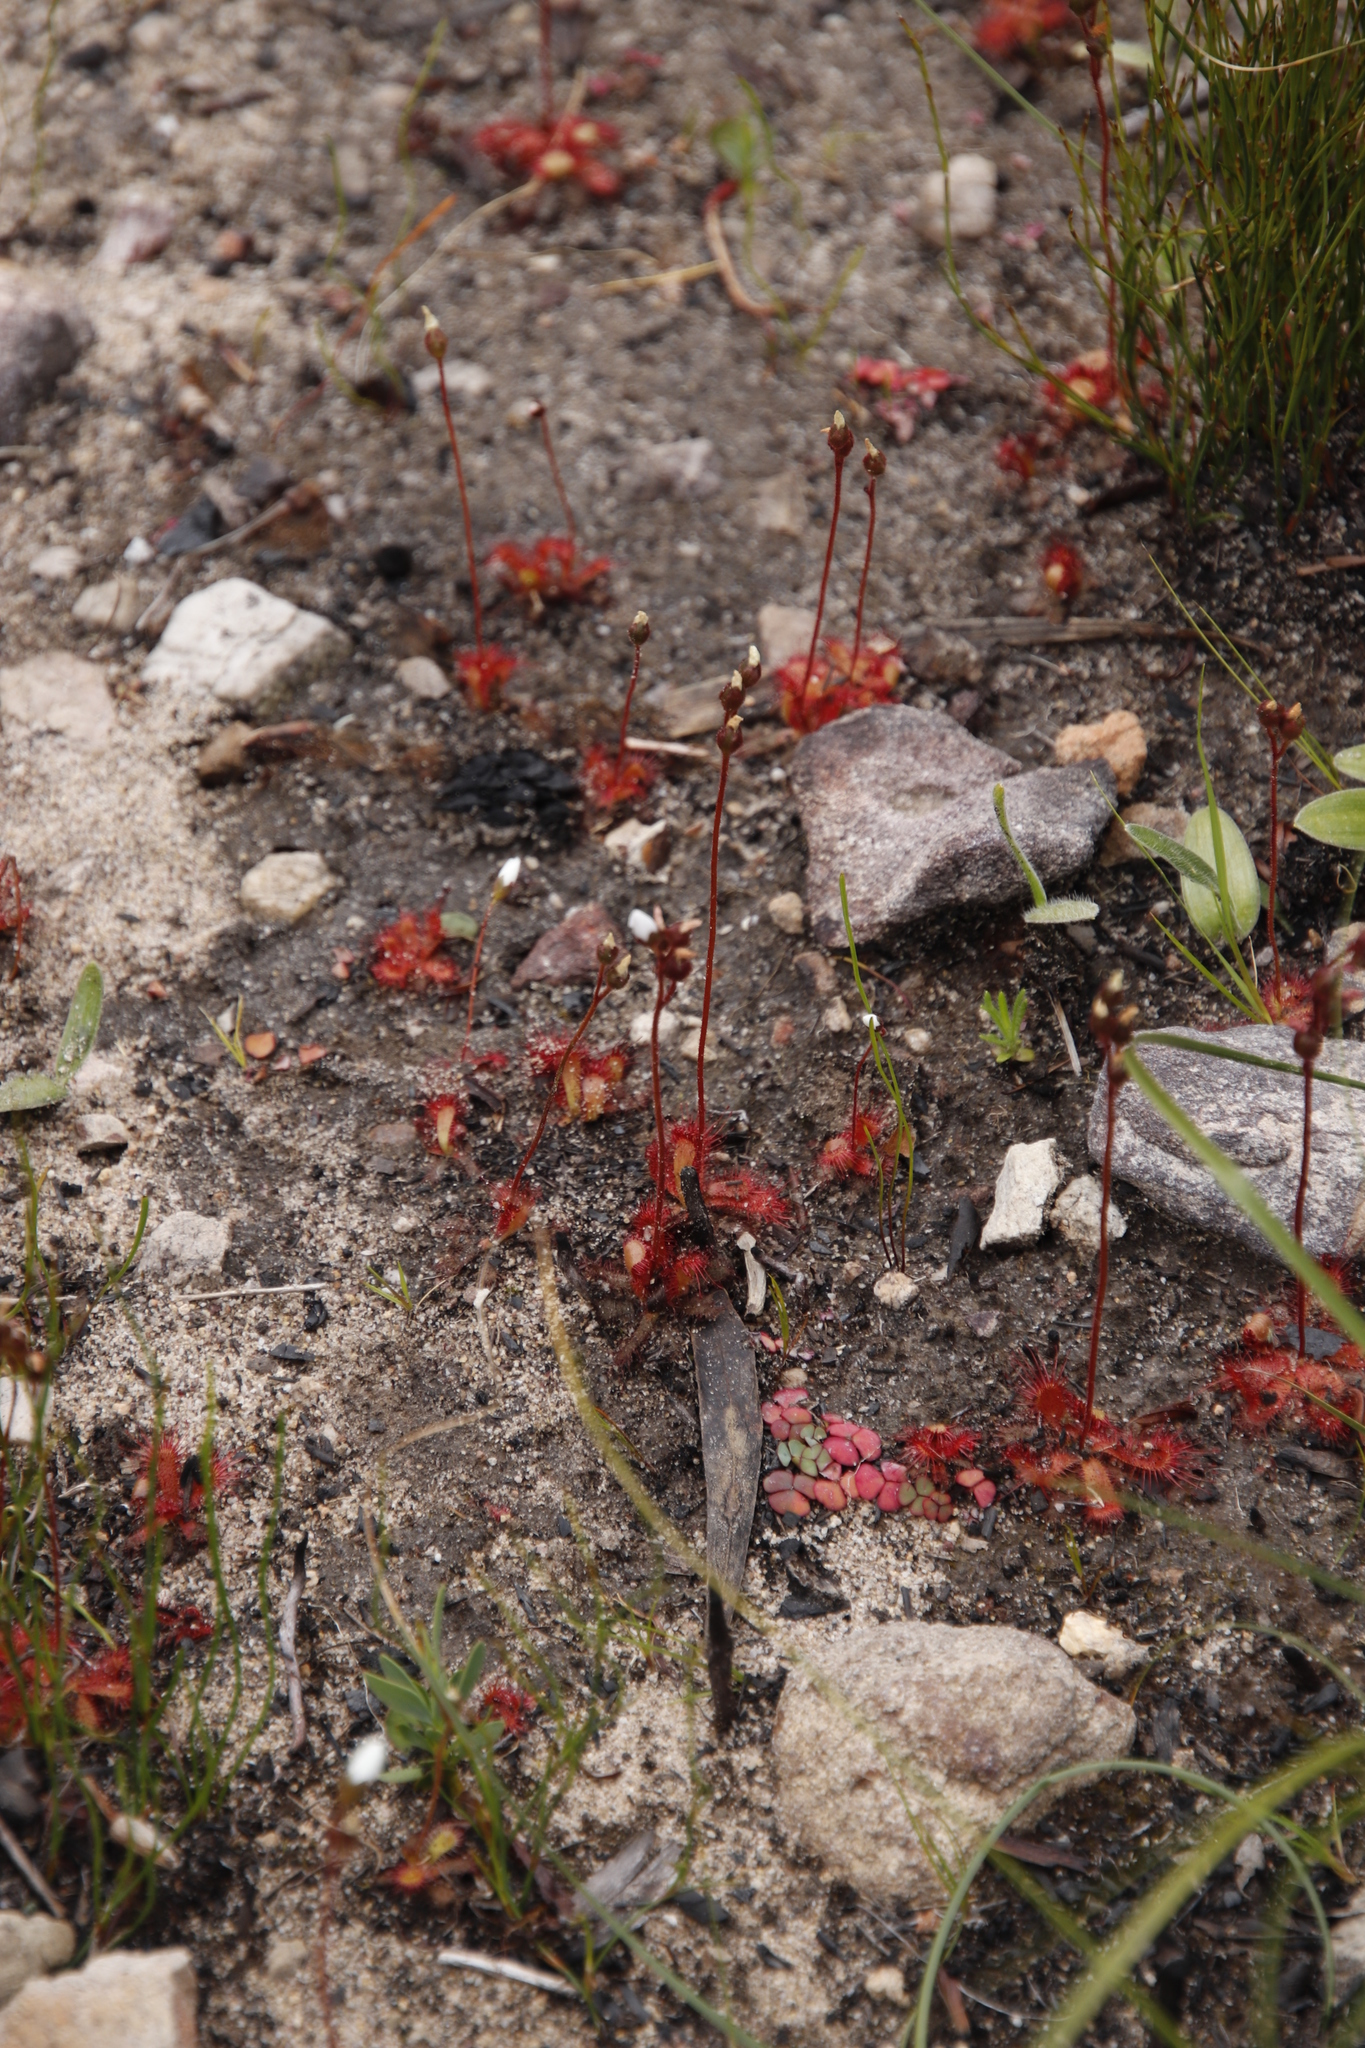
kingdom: Plantae
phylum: Tracheophyta
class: Magnoliopsida
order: Caryophyllales
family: Droseraceae
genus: Drosera
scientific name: Drosera trinervia
